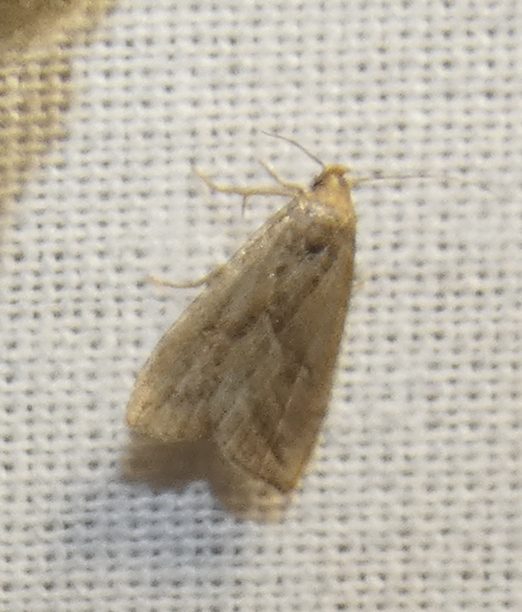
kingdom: Animalia
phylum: Arthropoda
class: Insecta
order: Lepidoptera
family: Erebidae
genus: Hypenodes
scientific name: Hypenodes humidalis
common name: Marsh oblique-barred
